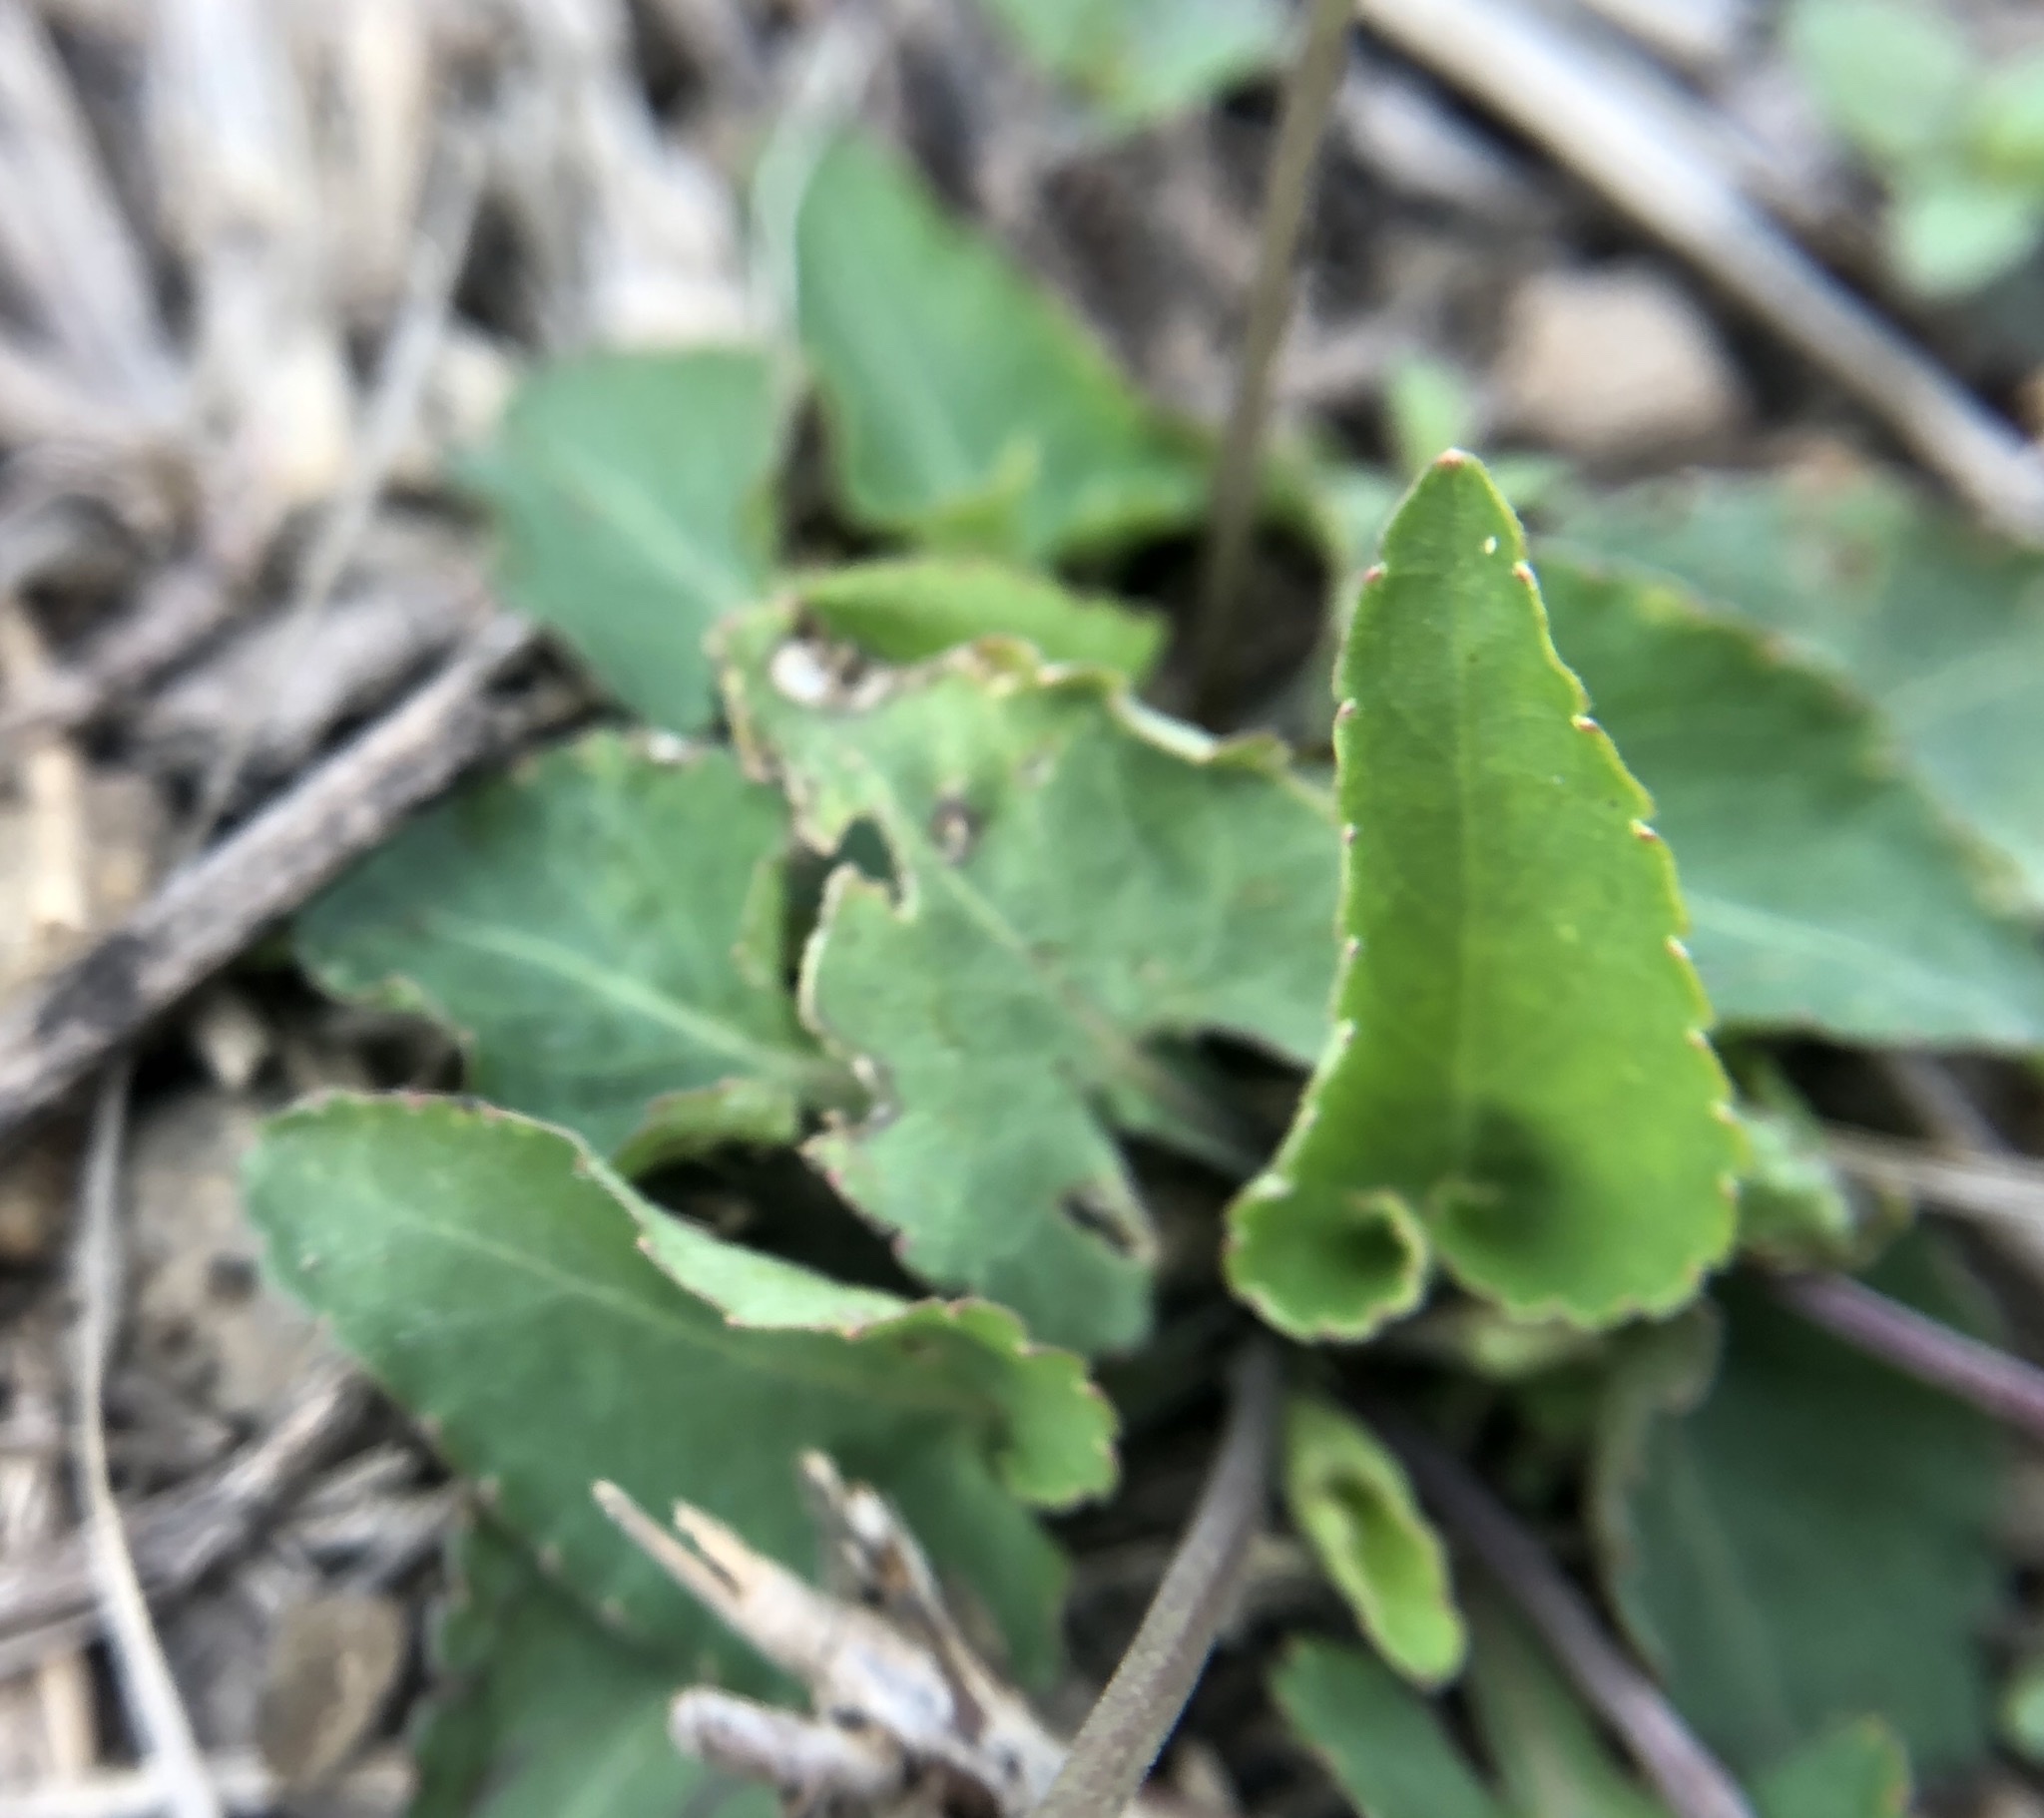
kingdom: Plantae
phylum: Tracheophyta
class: Magnoliopsida
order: Malpighiales
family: Violaceae
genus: Viola
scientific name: Viola
